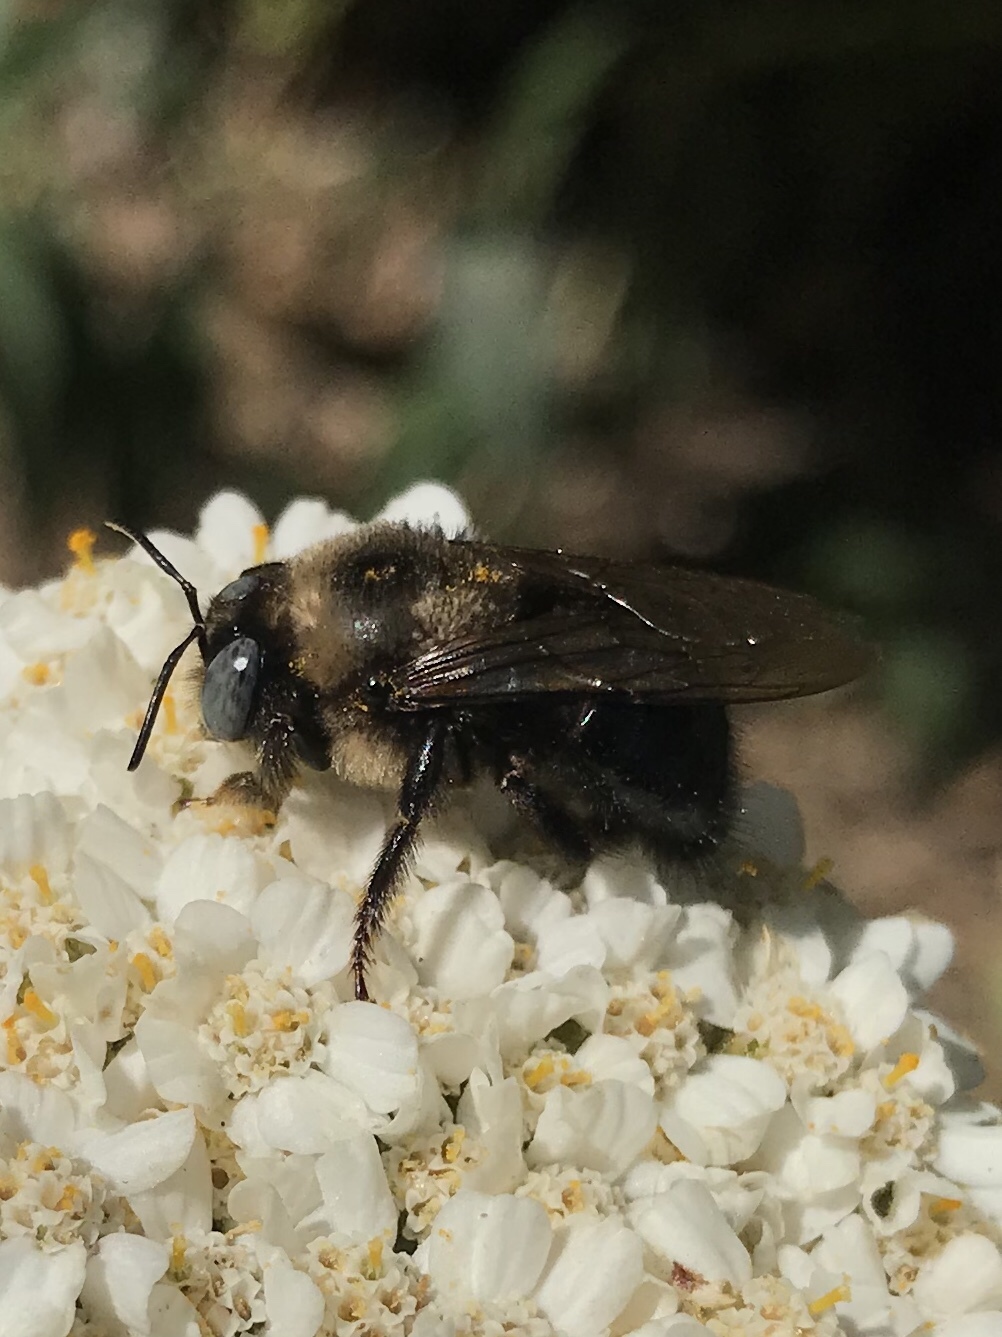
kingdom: Animalia
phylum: Arthropoda
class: Insecta
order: Hymenoptera
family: Apidae
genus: Xylocopa
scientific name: Xylocopa tabaniformis
